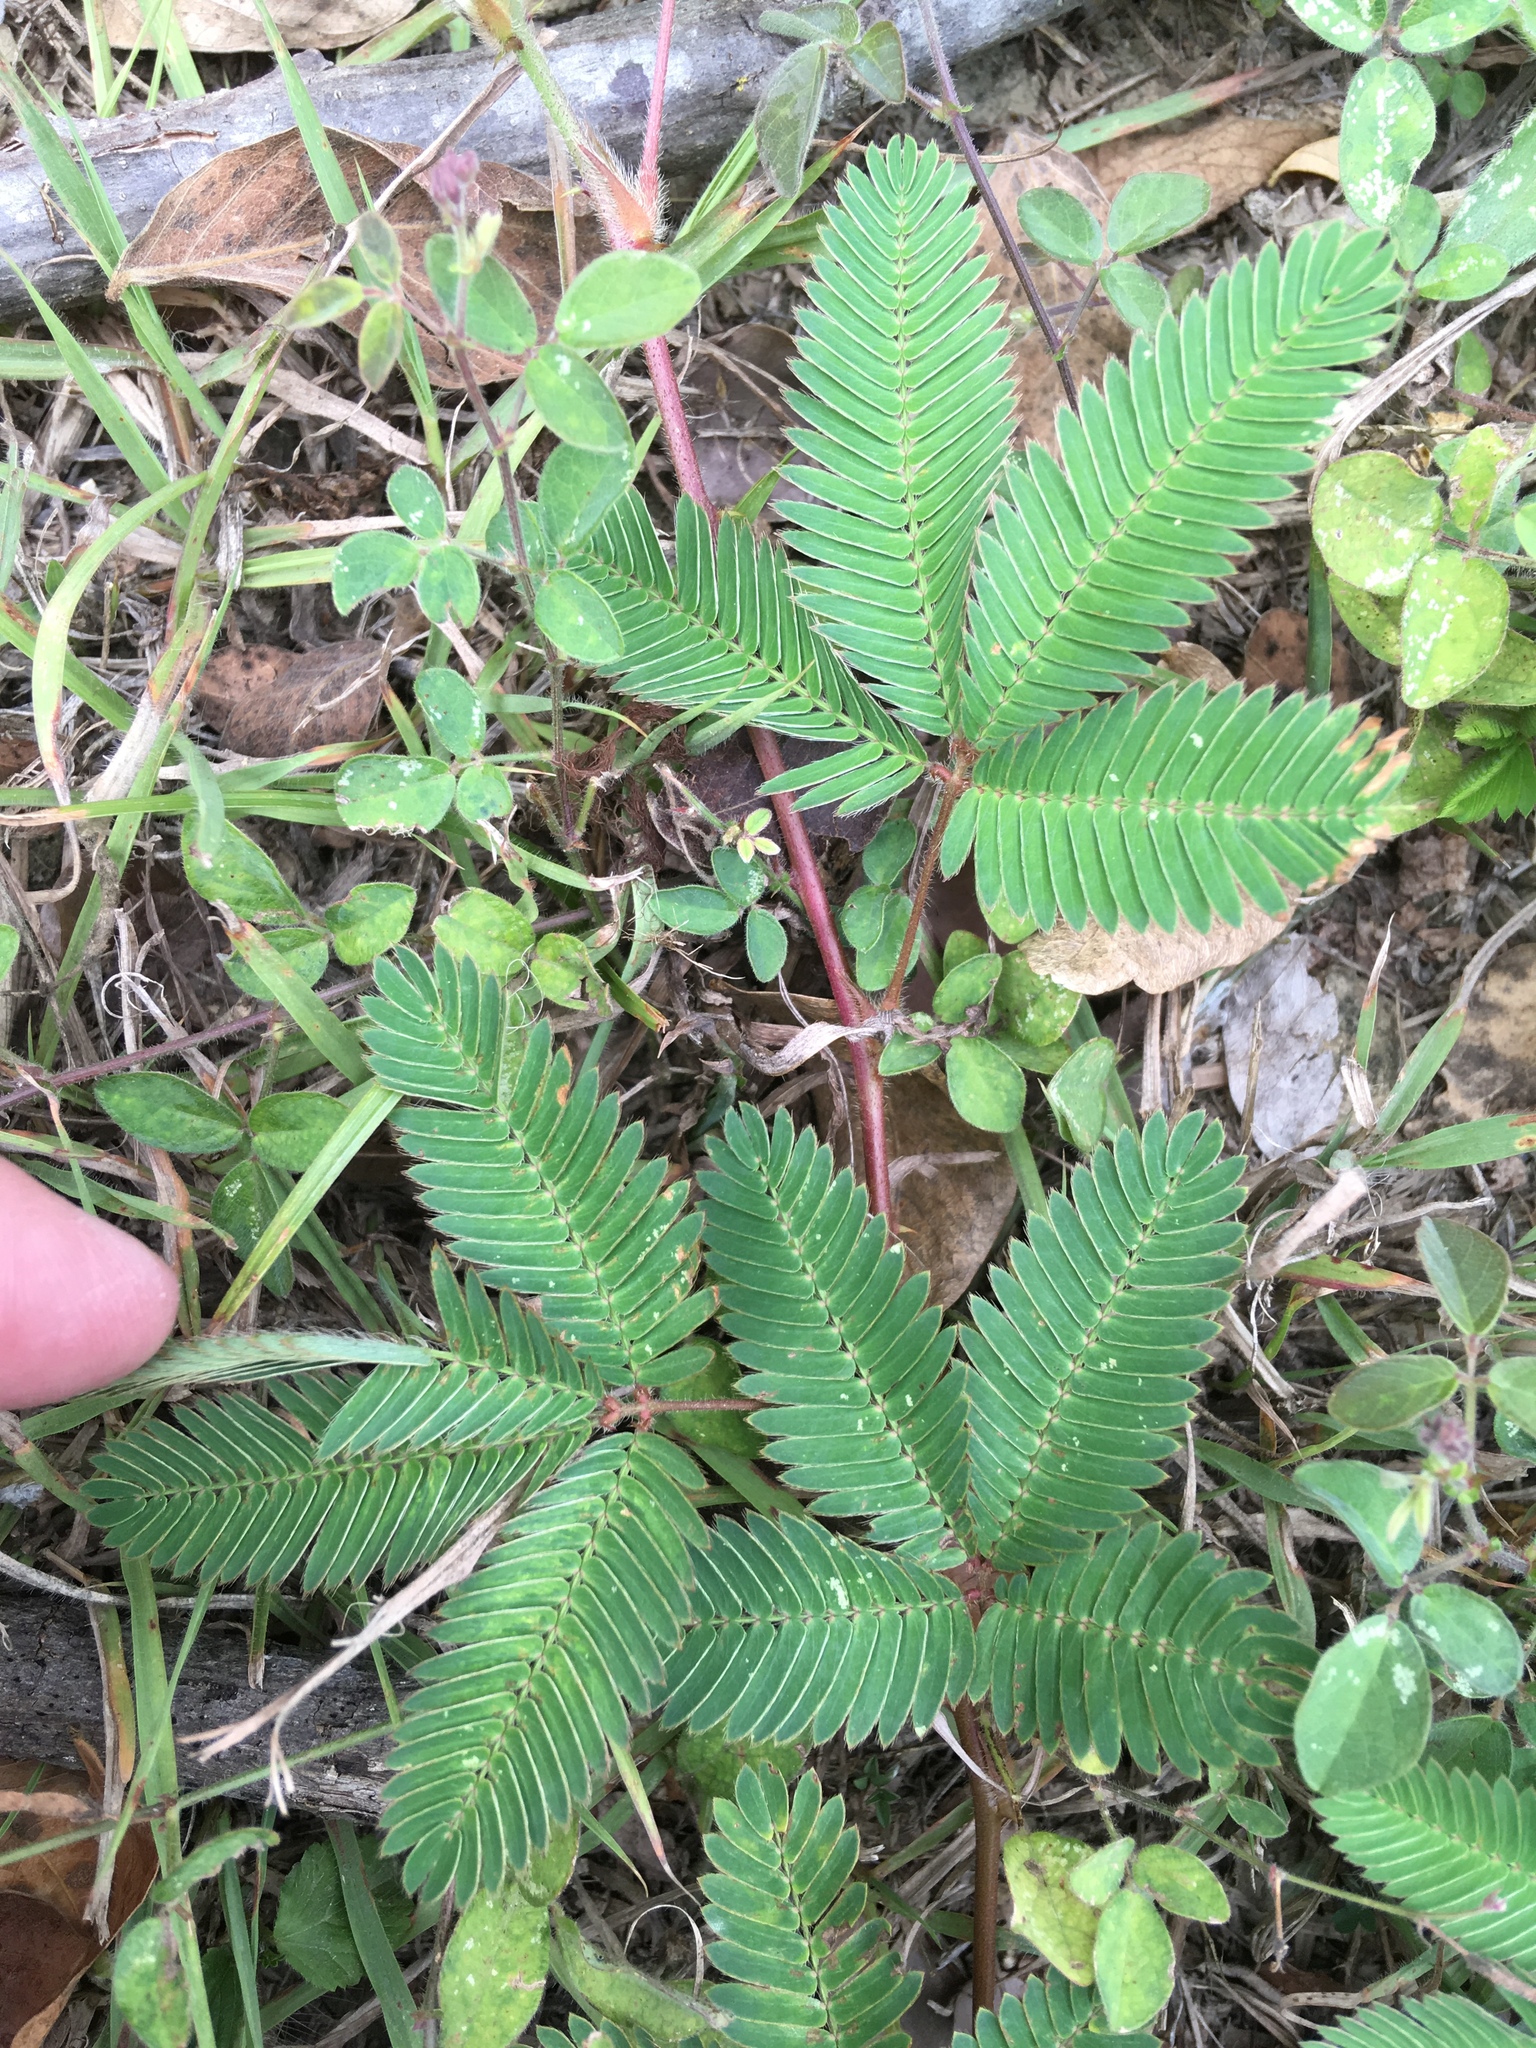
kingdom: Plantae
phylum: Tracheophyta
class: Magnoliopsida
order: Fabales
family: Fabaceae
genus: Mimosa
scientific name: Mimosa pudica
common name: Sensitive plant
